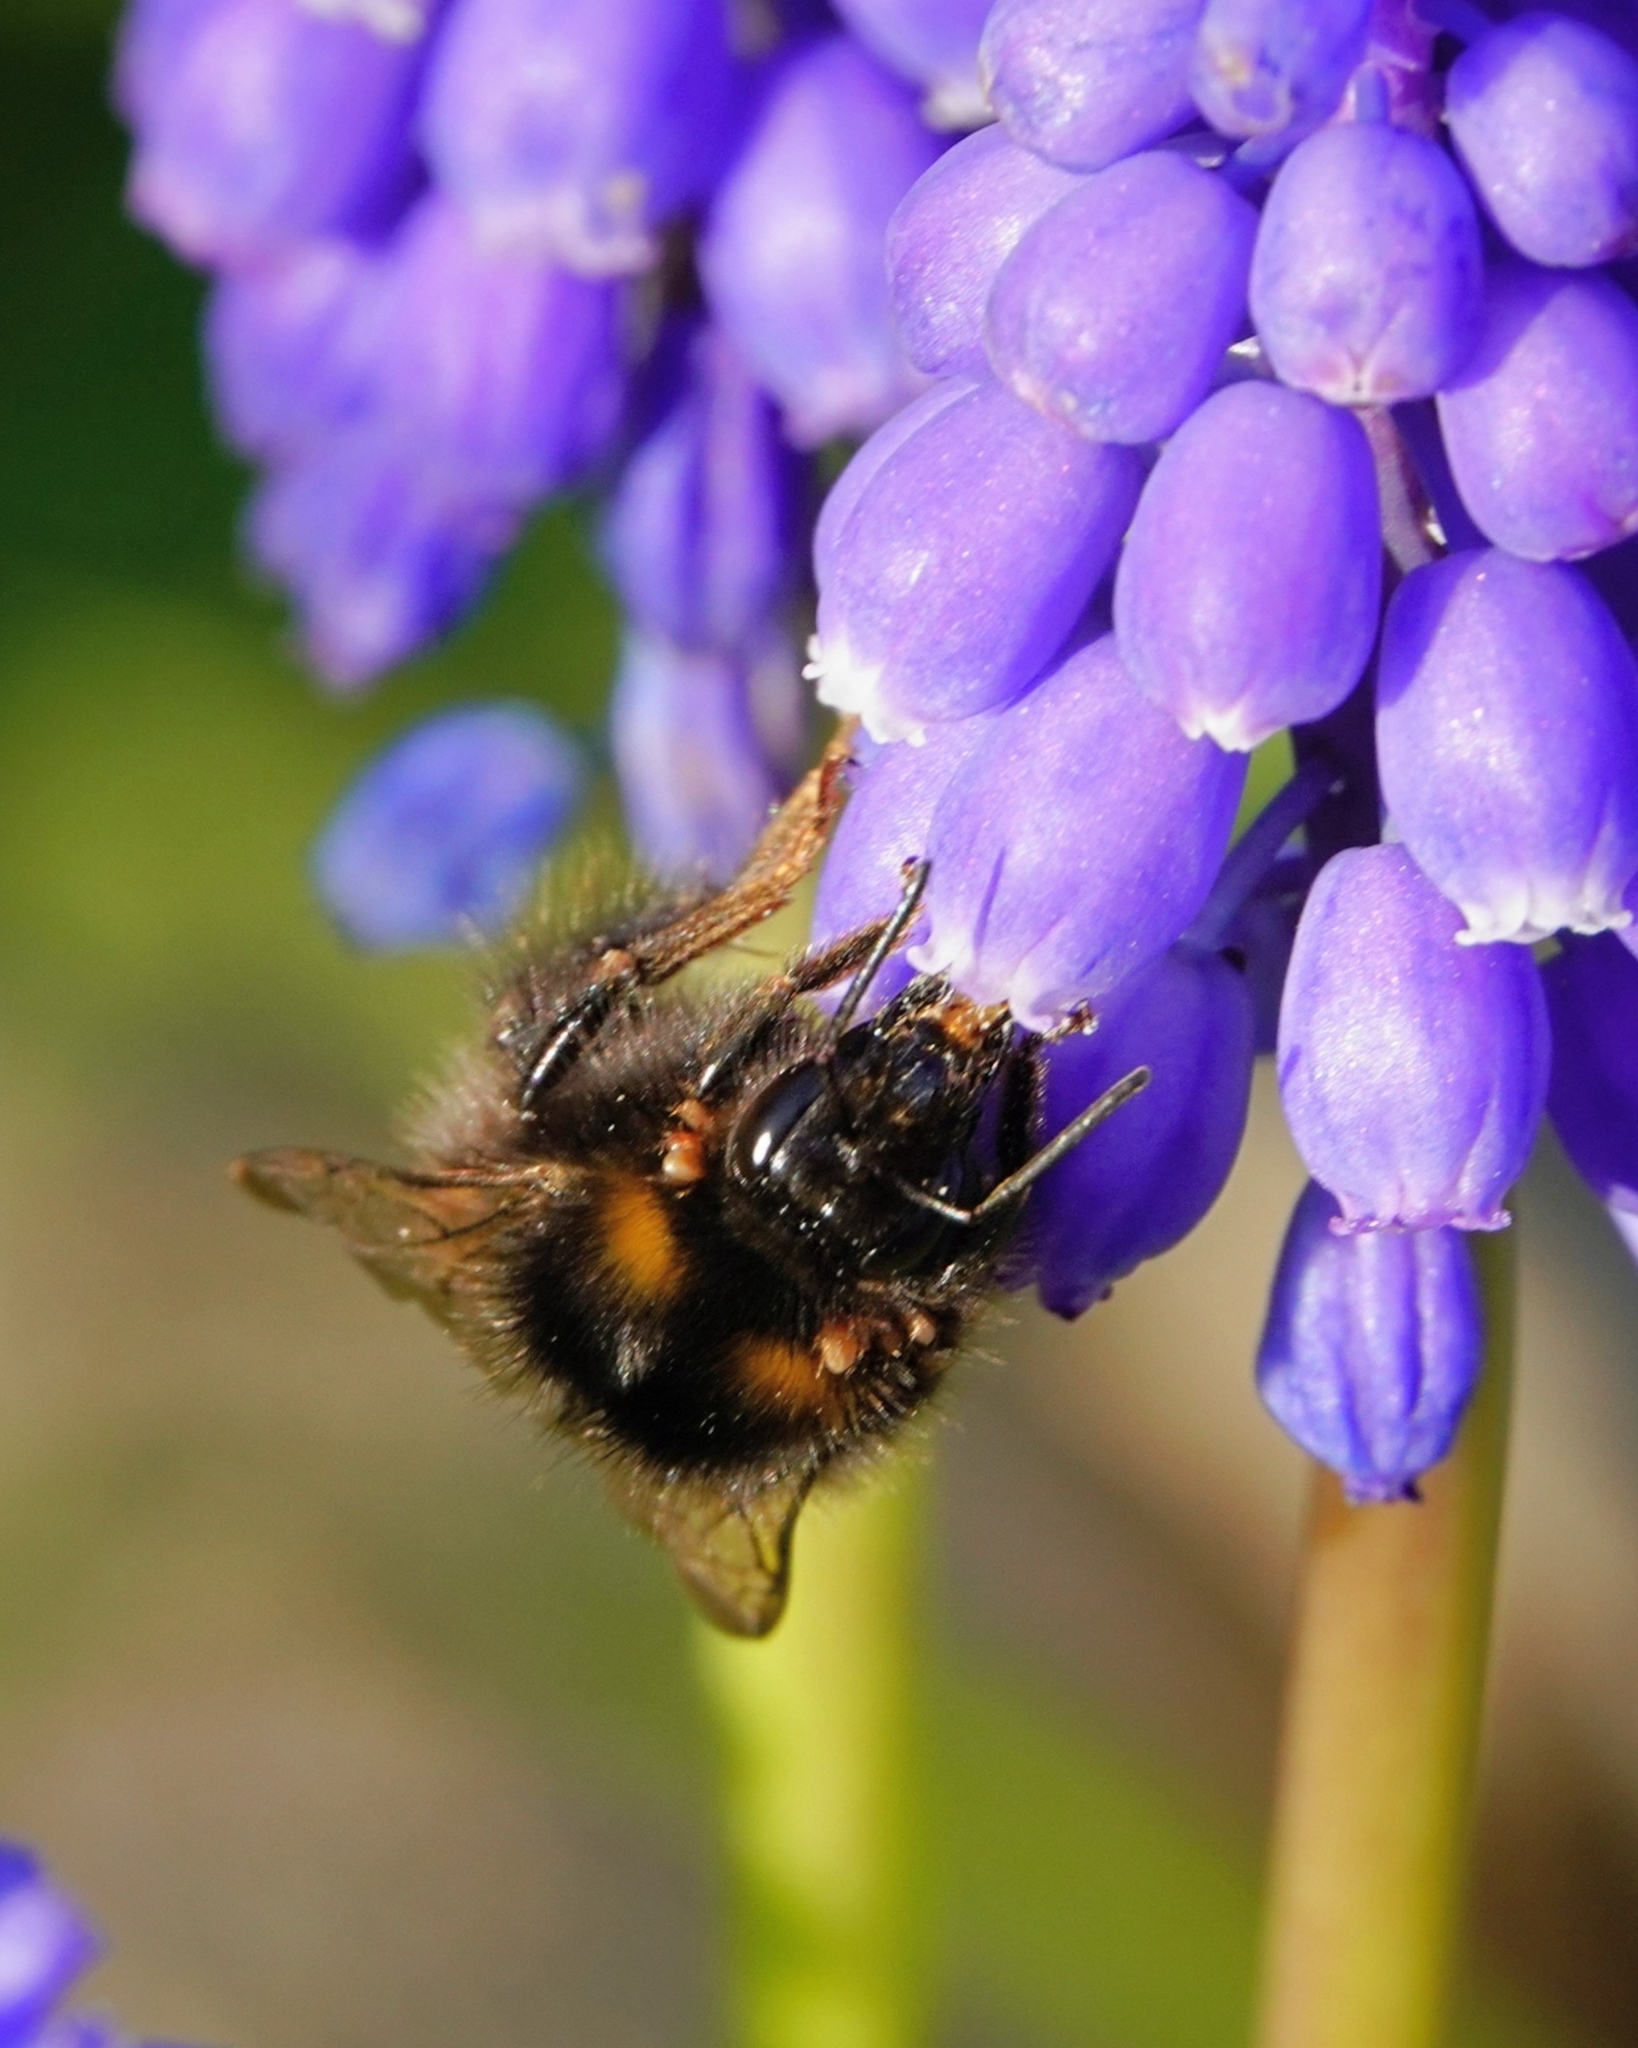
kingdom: Animalia
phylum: Arthropoda
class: Insecta
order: Hymenoptera
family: Apidae
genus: Bombus
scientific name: Bombus pratorum
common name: Early humble-bee
